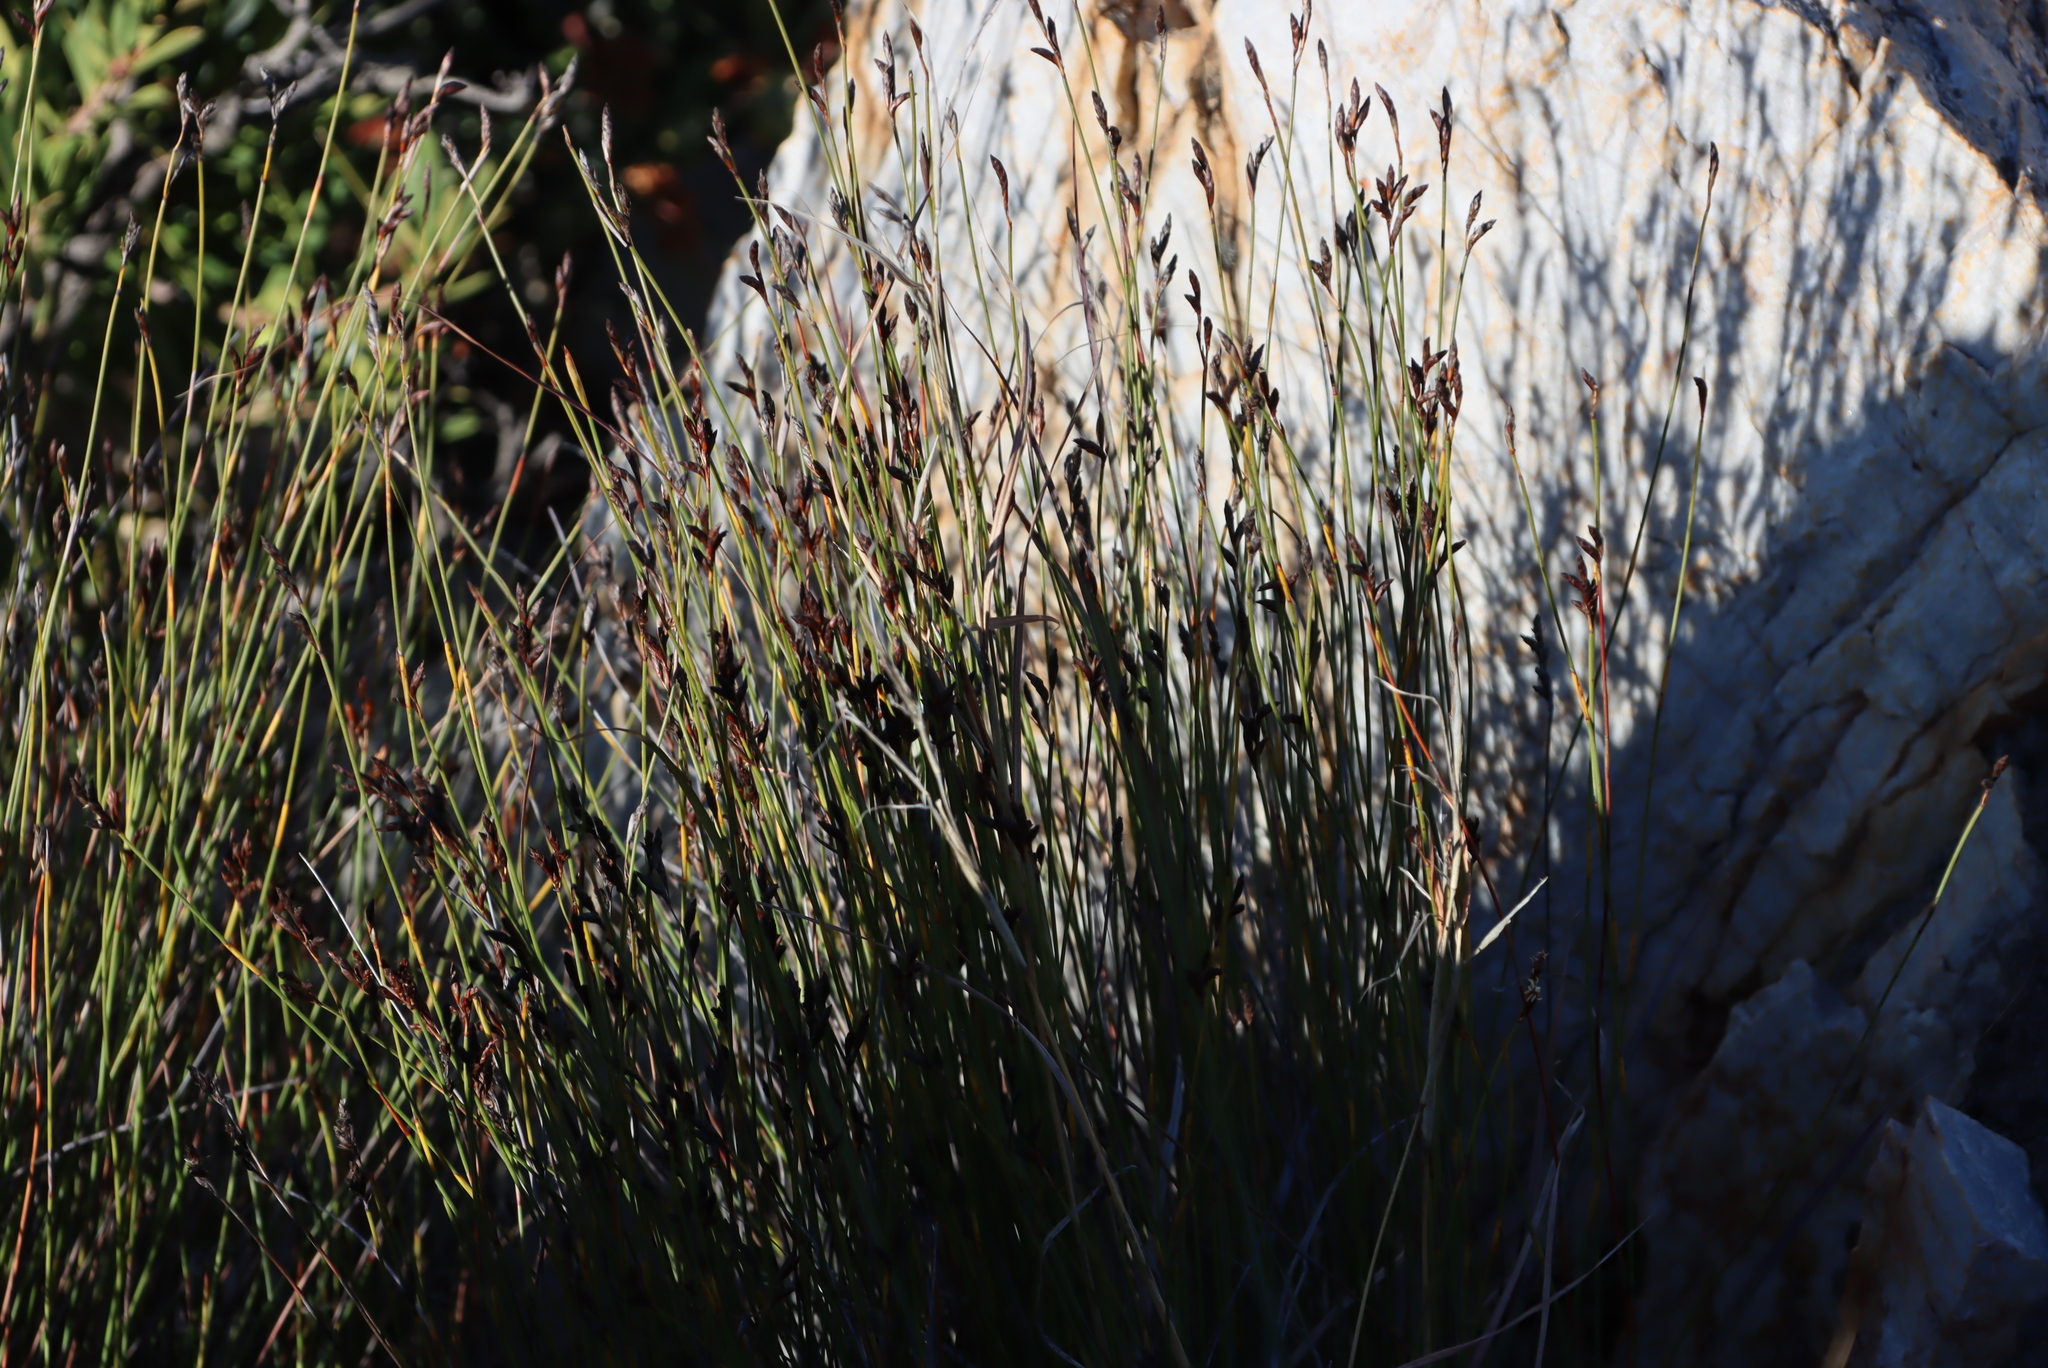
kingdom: Plantae
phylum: Tracheophyta
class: Liliopsida
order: Poales
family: Restionaceae
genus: Hypodiscus
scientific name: Hypodiscus striatus
